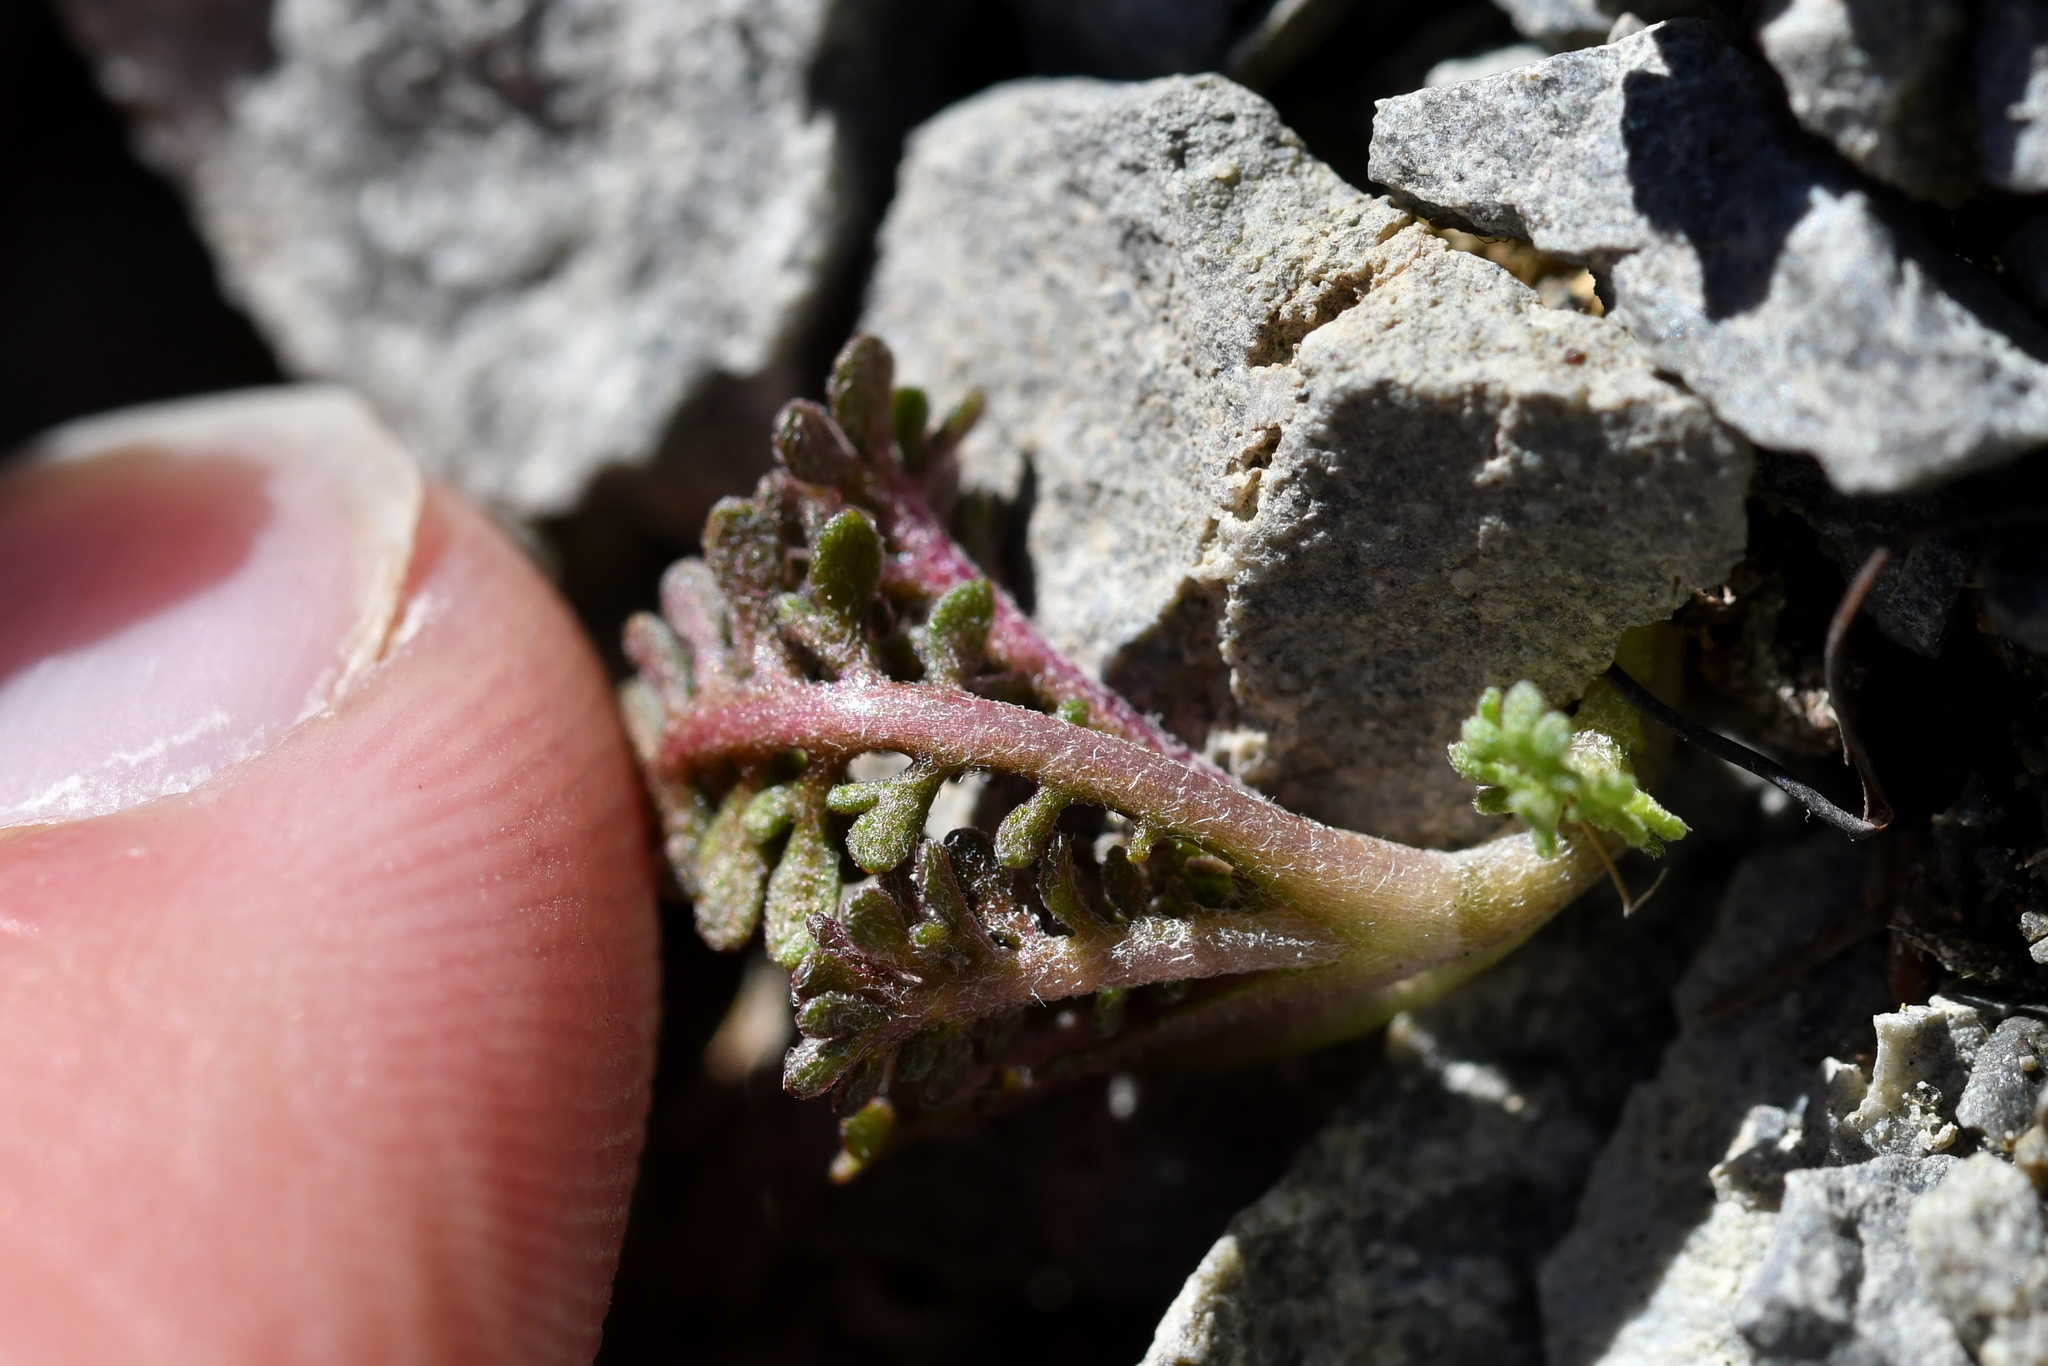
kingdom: Plantae
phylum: Tracheophyta
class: Magnoliopsida
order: Asterales
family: Asteraceae
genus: Leptinella
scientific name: Leptinella atrata
